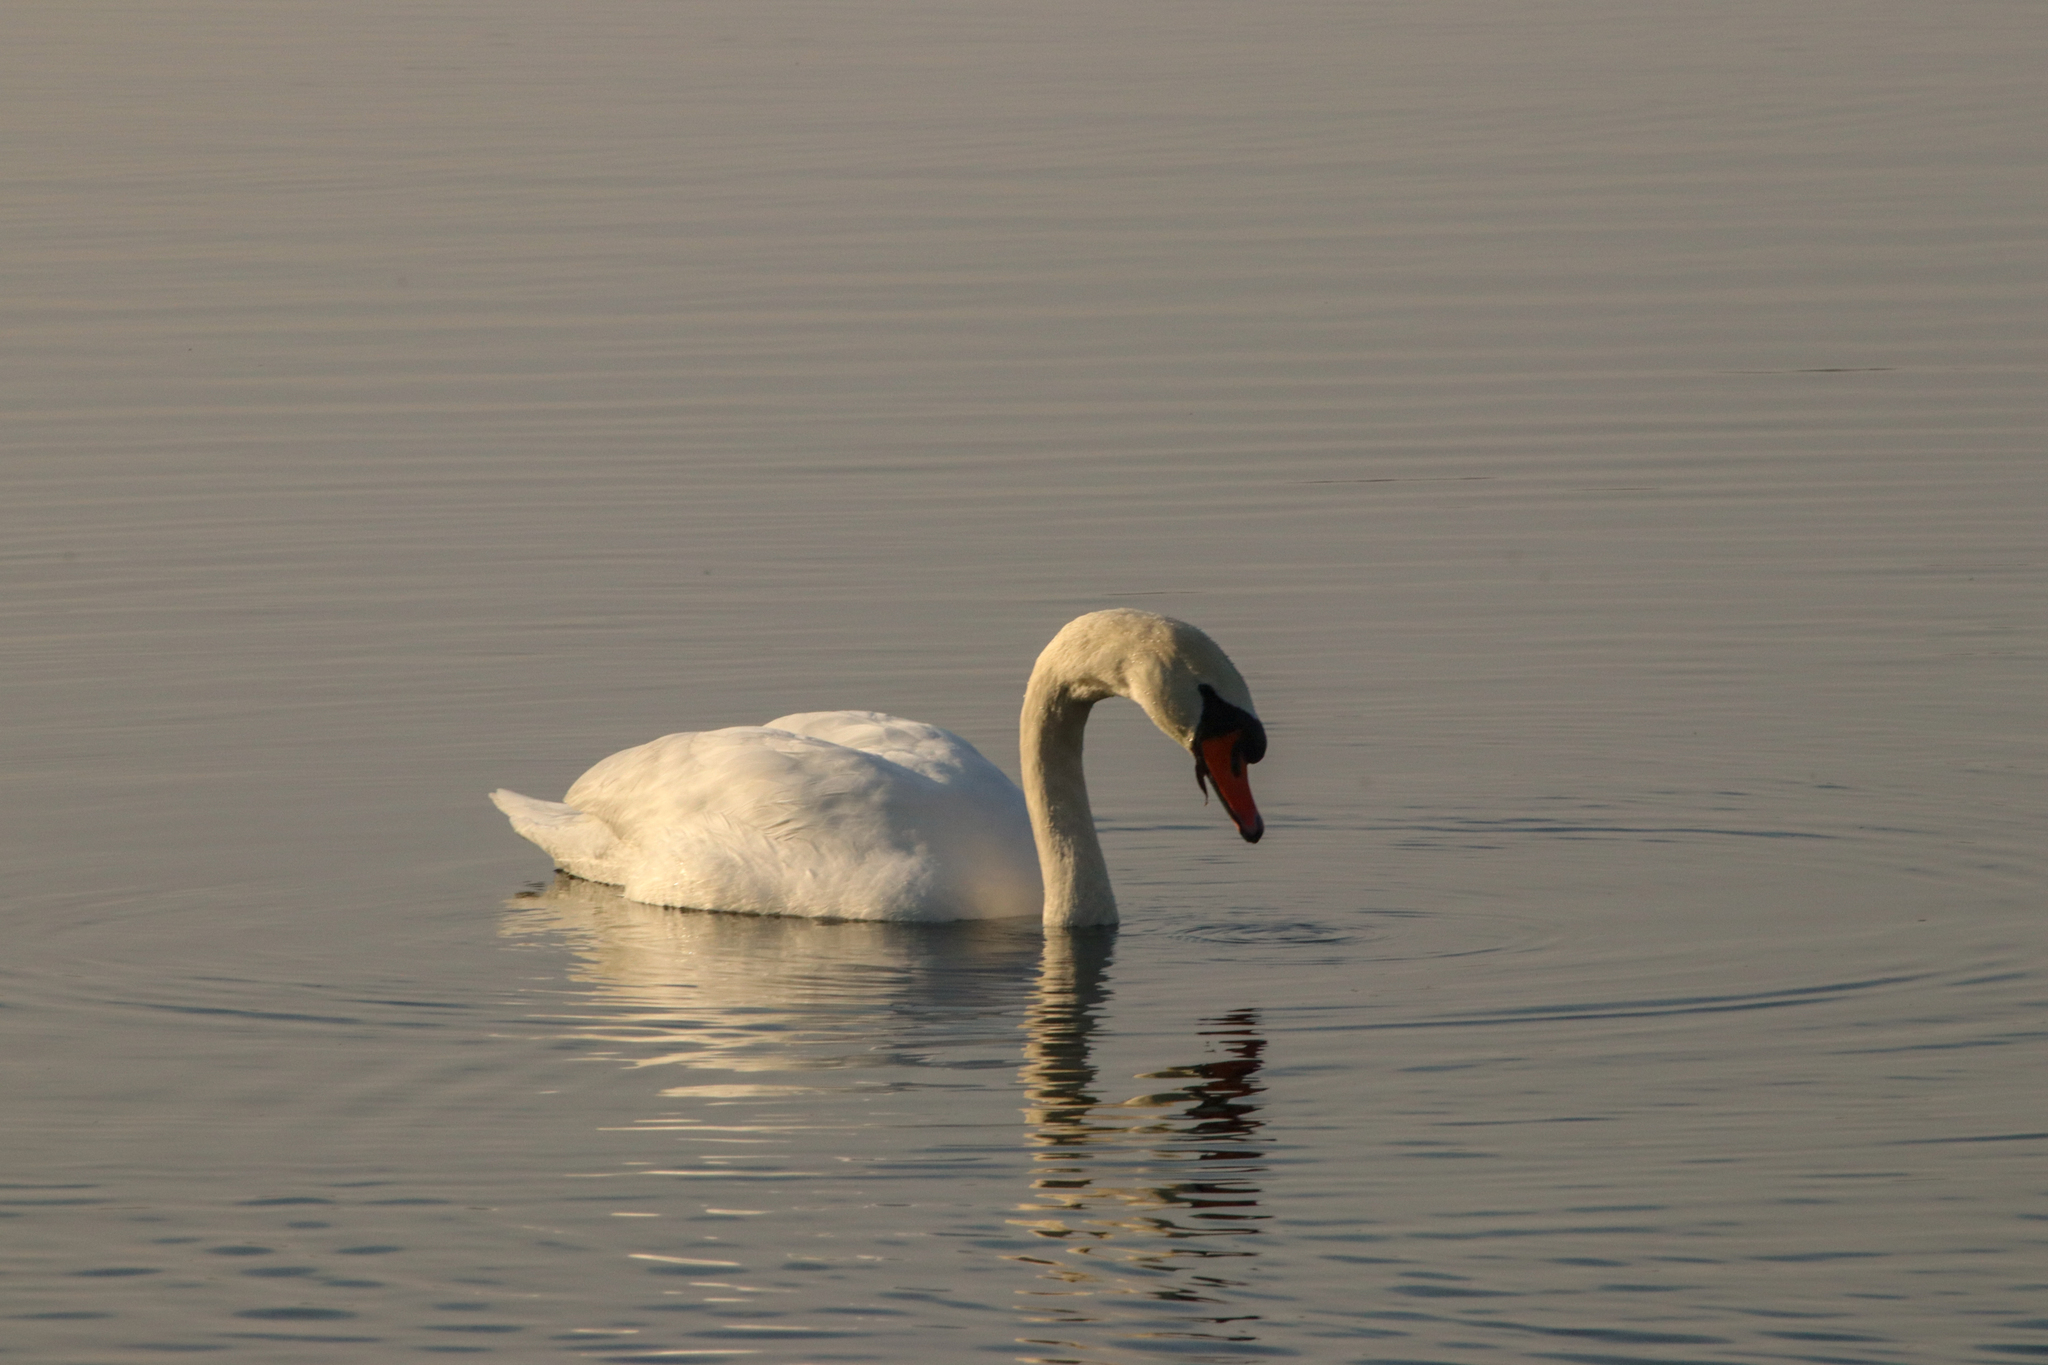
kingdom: Animalia
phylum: Chordata
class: Aves
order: Anseriformes
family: Anatidae
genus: Cygnus
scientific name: Cygnus olor
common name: Mute swan
